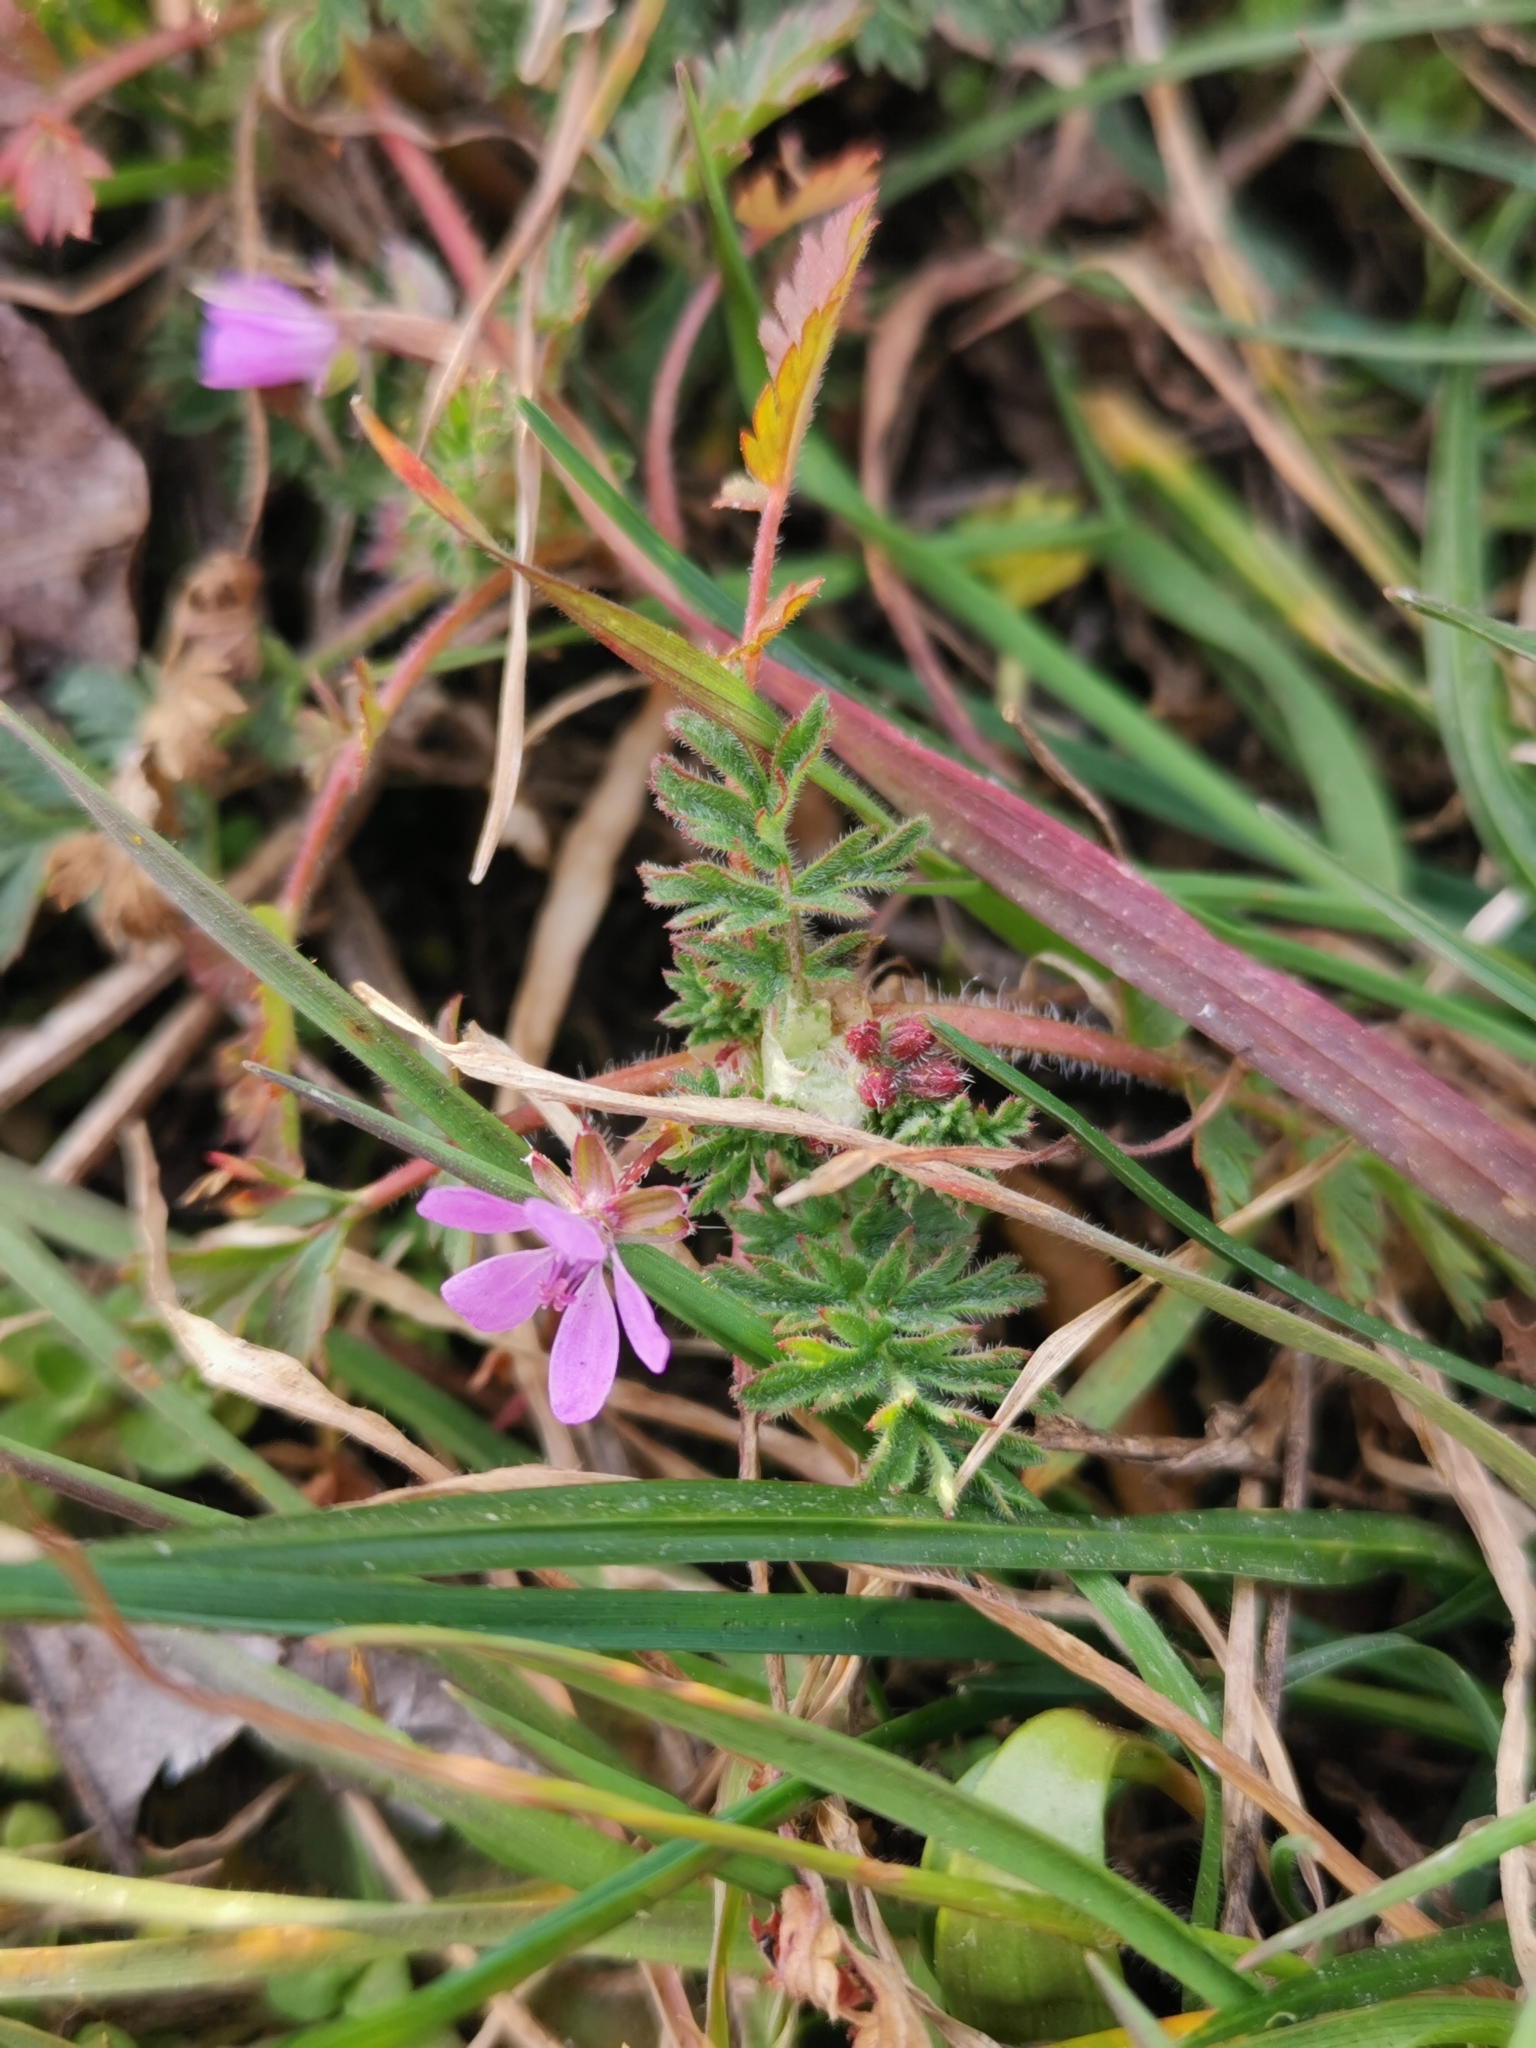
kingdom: Plantae
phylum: Tracheophyta
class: Magnoliopsida
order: Geraniales
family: Geraniaceae
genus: Erodium
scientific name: Erodium cicutarium
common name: Common stork's-bill
